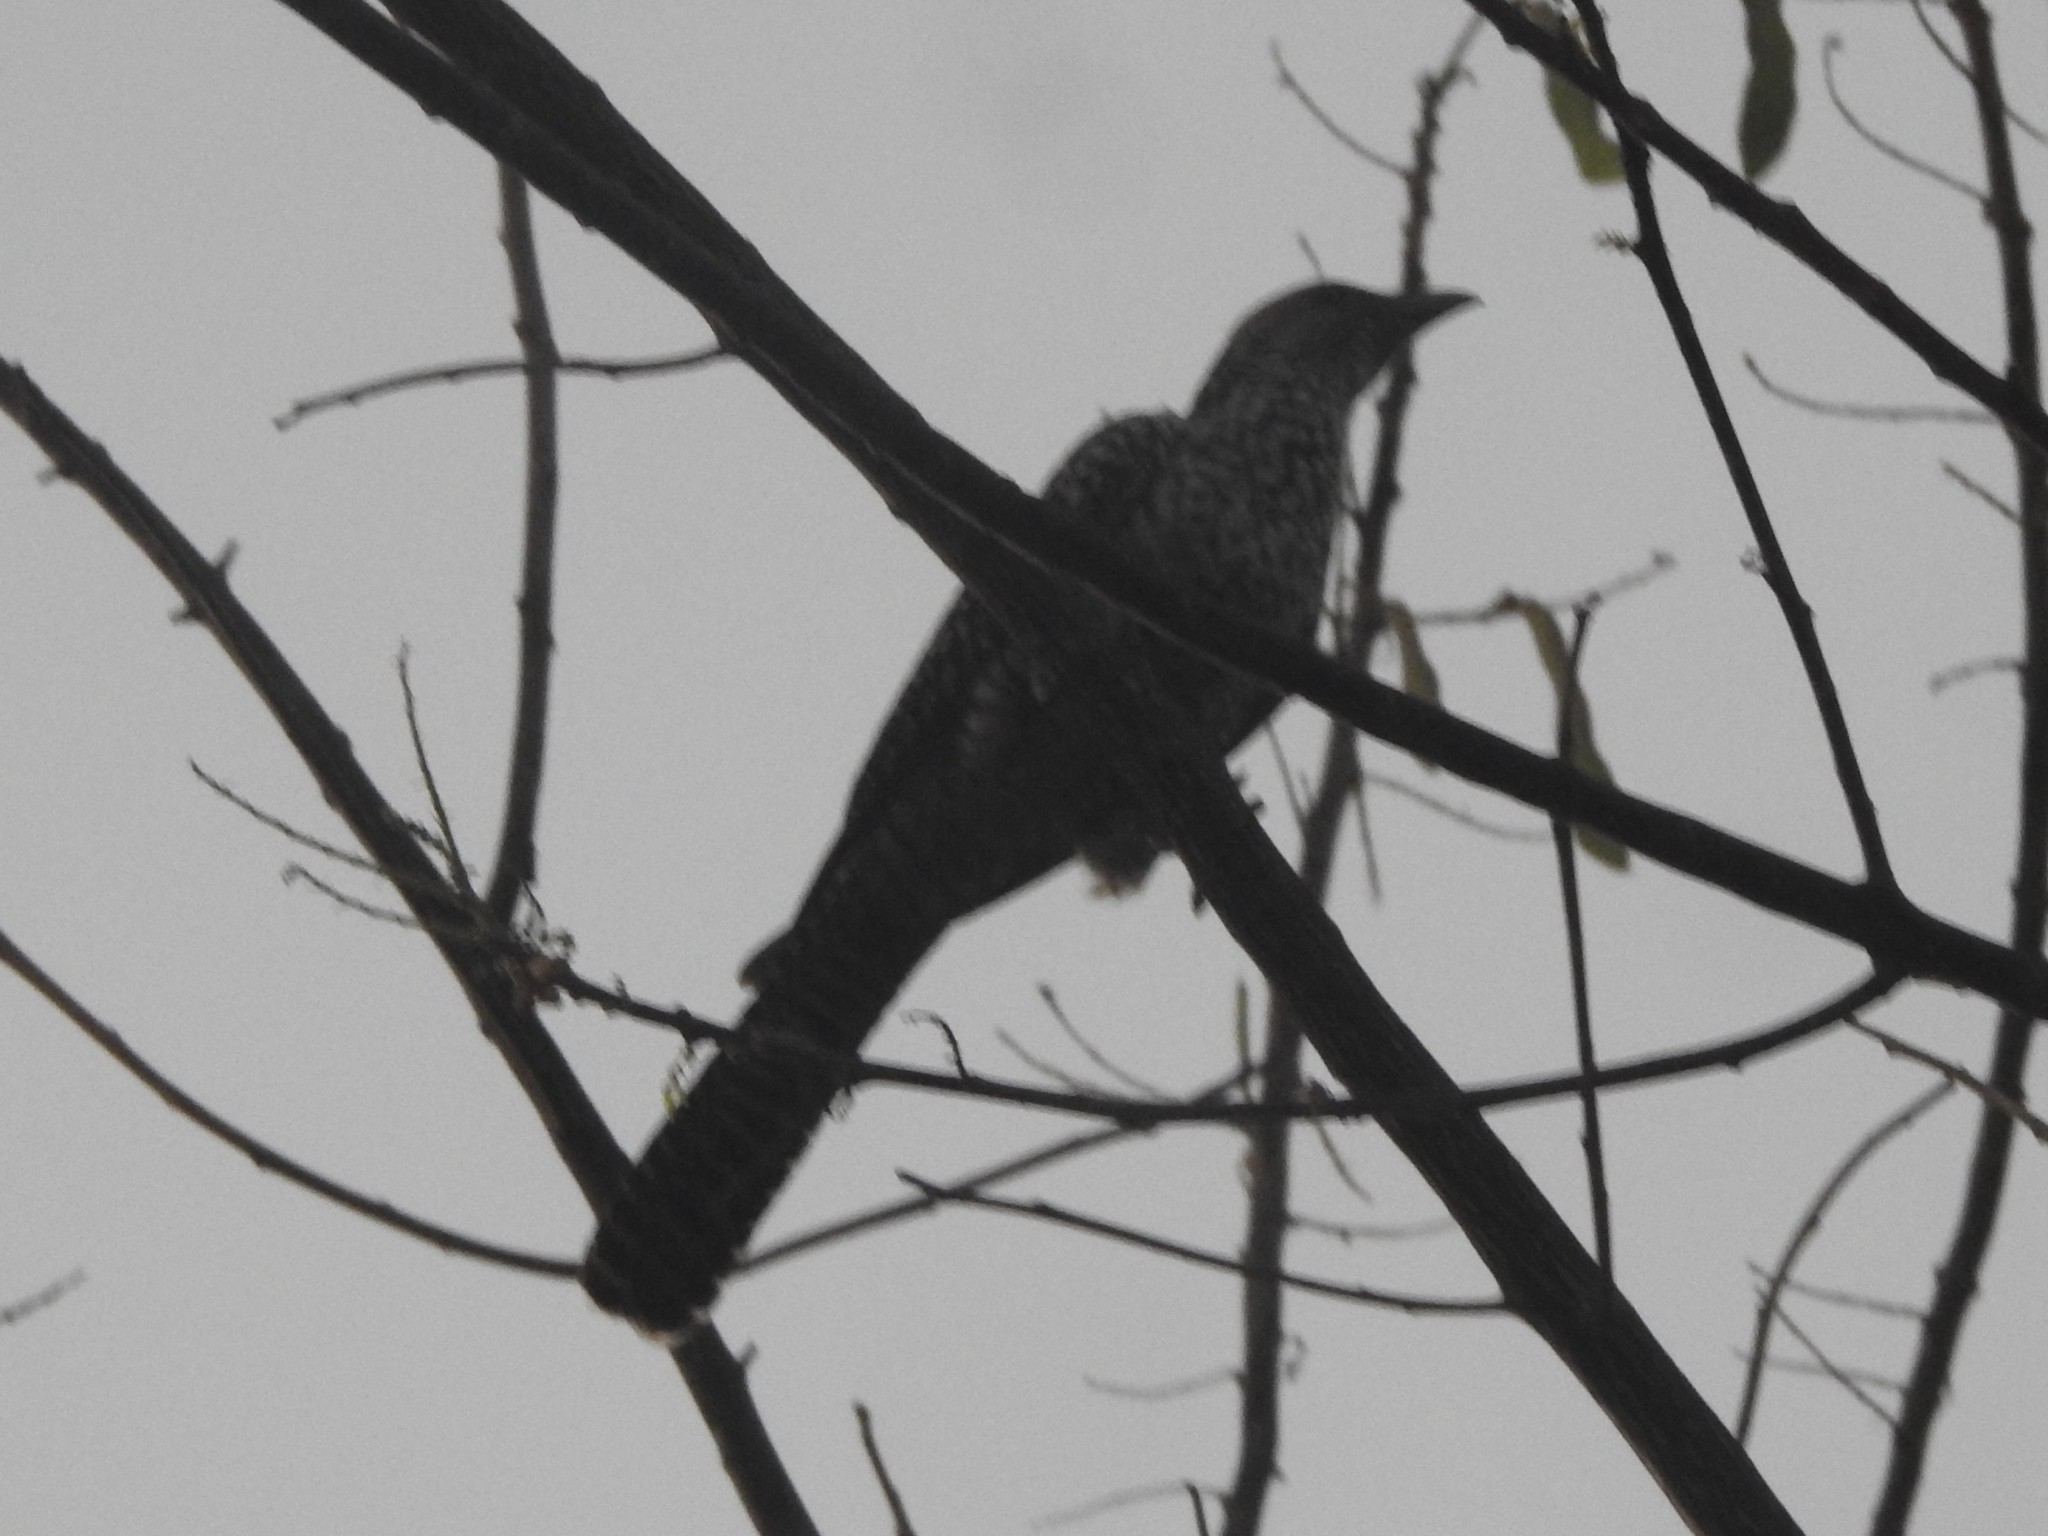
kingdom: Animalia
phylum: Chordata
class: Aves
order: Cuculiformes
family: Cuculidae
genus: Eudynamys
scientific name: Eudynamys scolopaceus
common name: Asian koel
